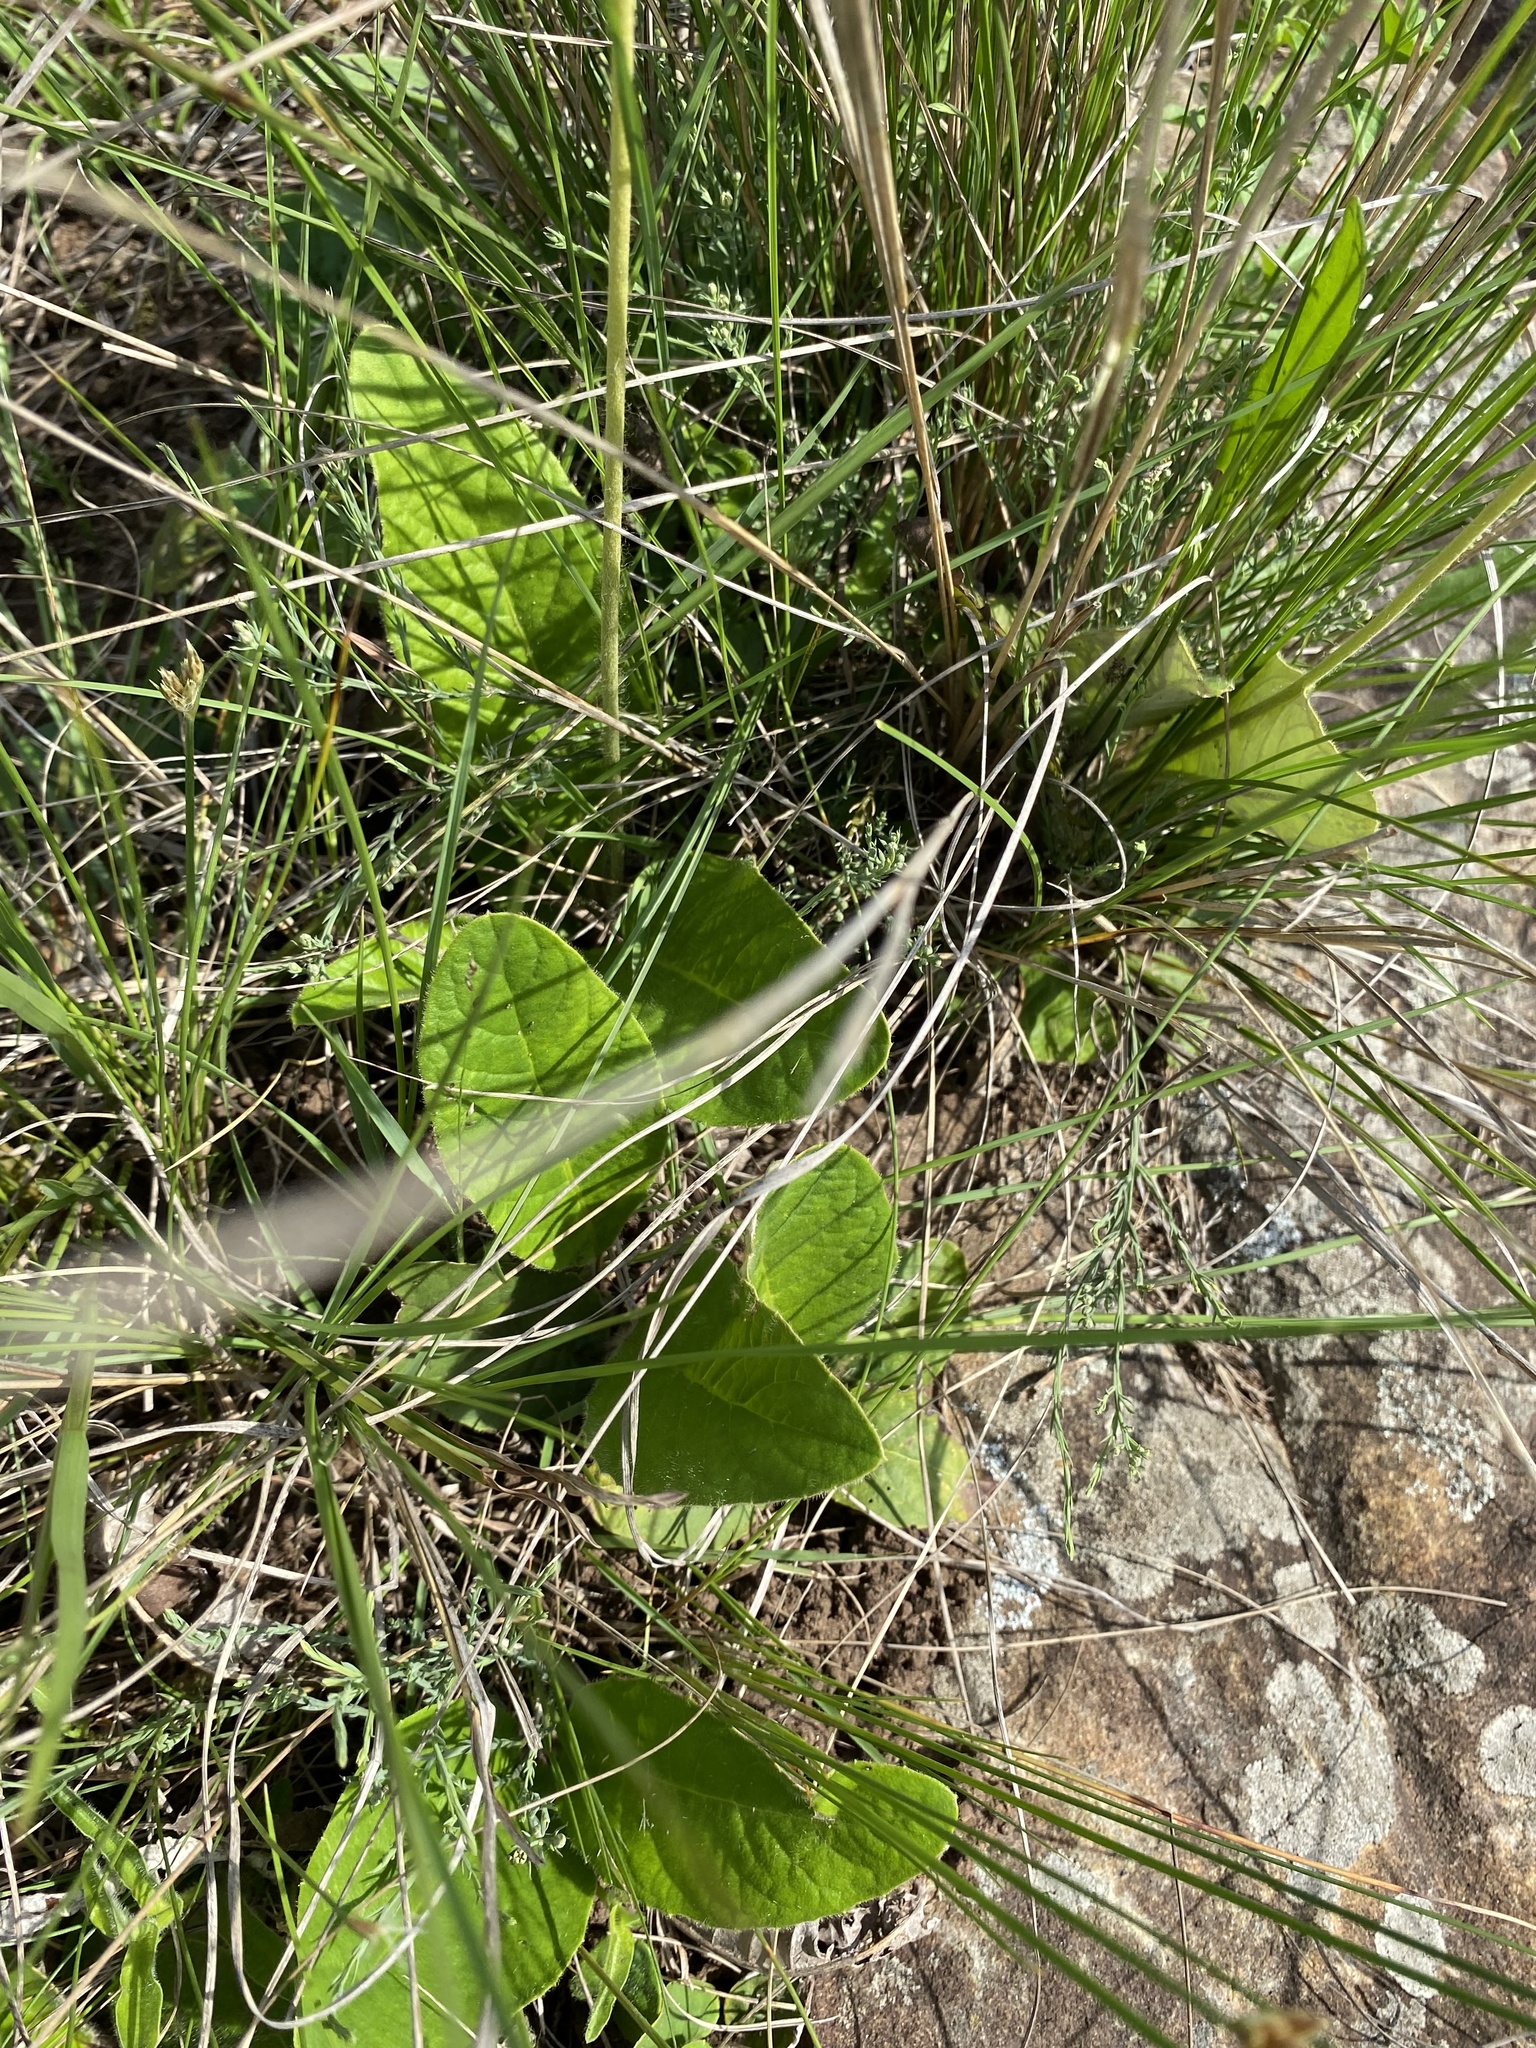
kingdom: Plantae
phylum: Tracheophyta
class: Magnoliopsida
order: Asterales
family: Asteraceae
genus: Gerbera
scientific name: Gerbera ambigua
